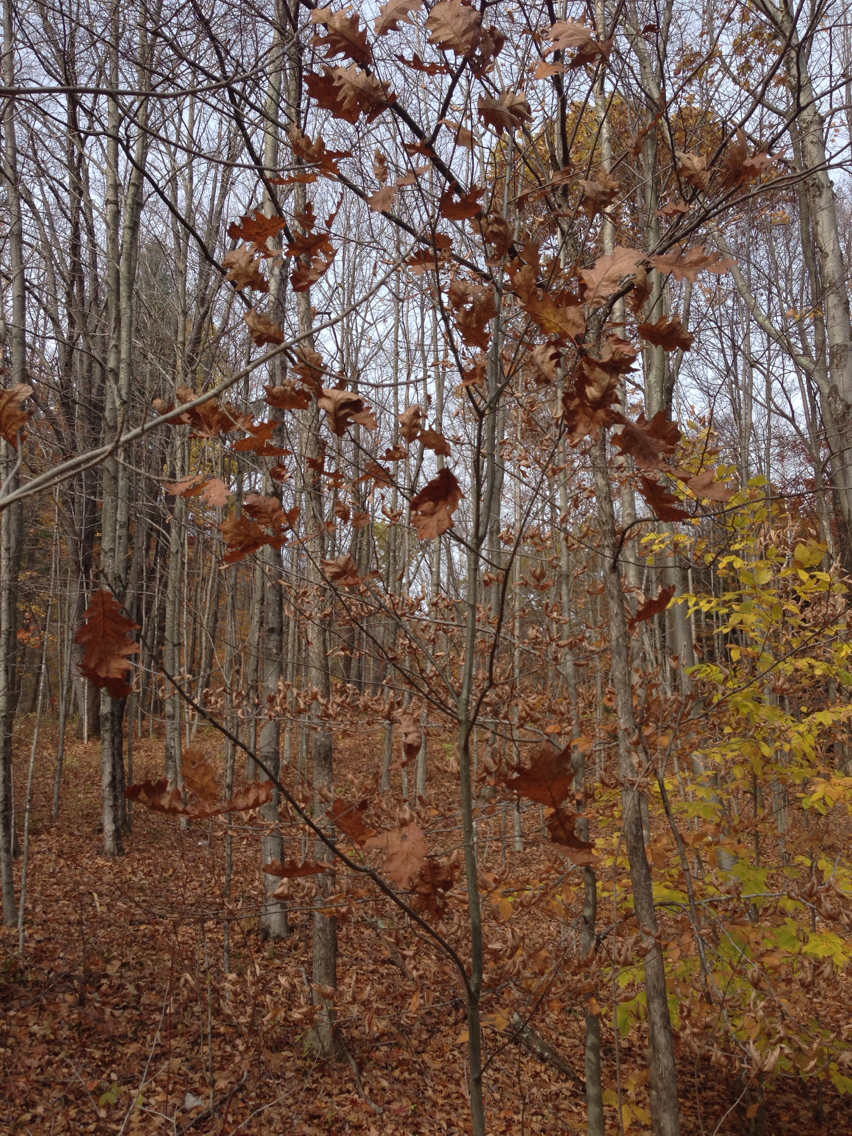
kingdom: Plantae
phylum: Tracheophyta
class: Magnoliopsida
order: Fagales
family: Fagaceae
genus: Quercus
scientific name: Quercus rubra
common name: Red oak
